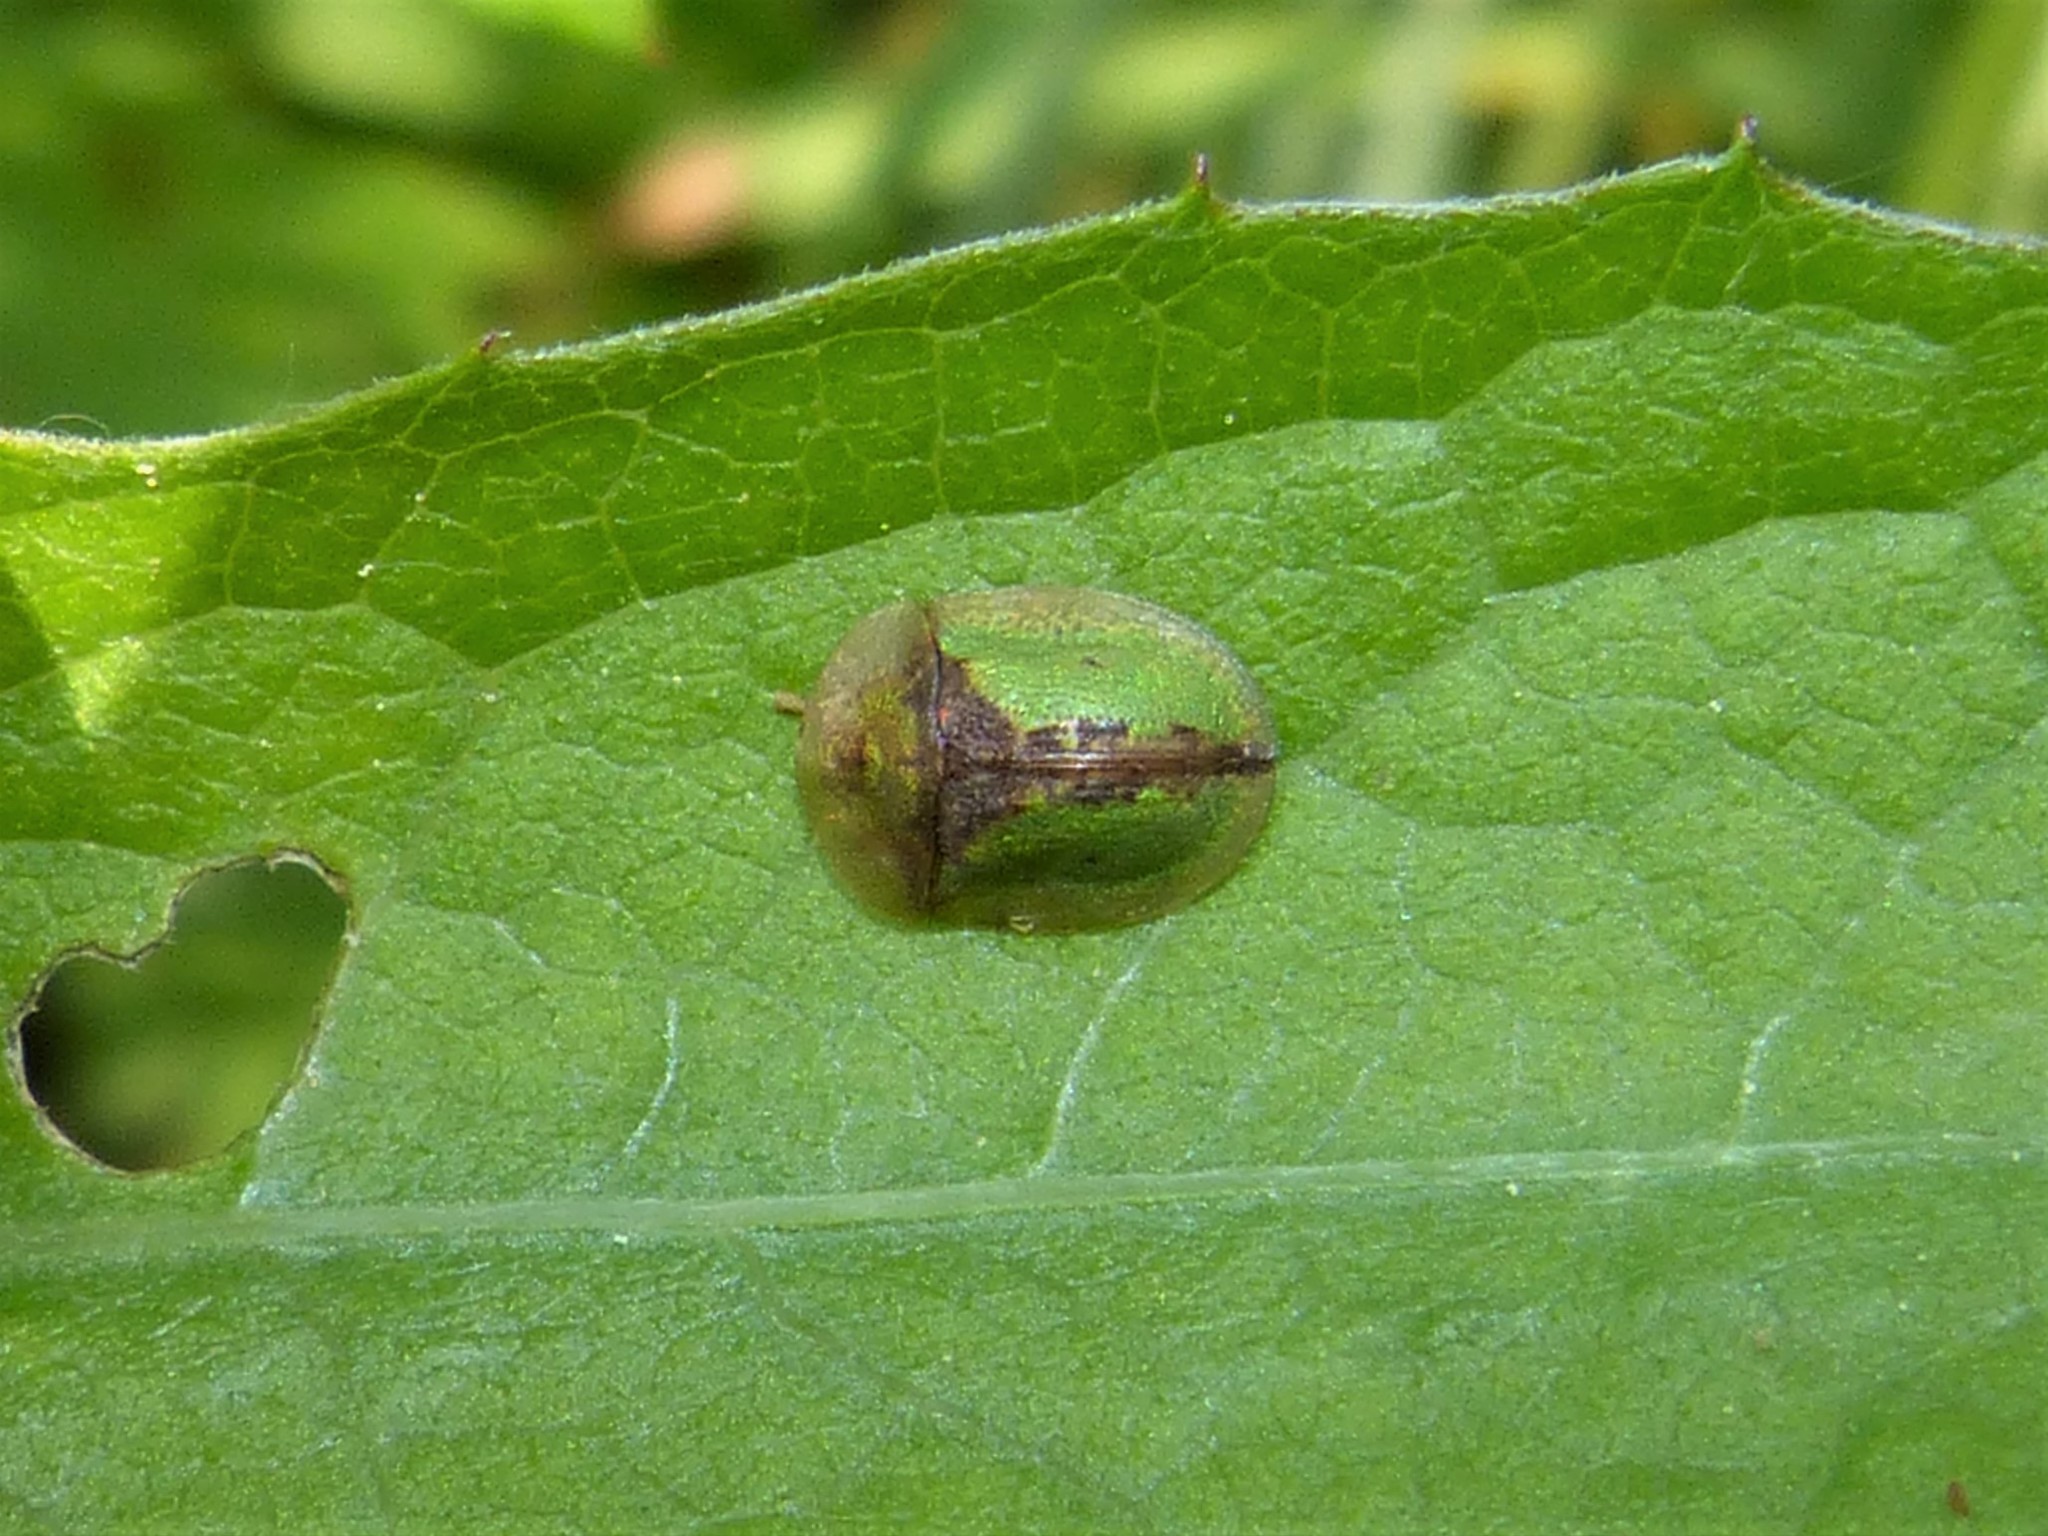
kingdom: Animalia
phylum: Arthropoda
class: Insecta
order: Coleoptera
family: Chrysomelidae
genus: Cassida
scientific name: Cassida vibex
